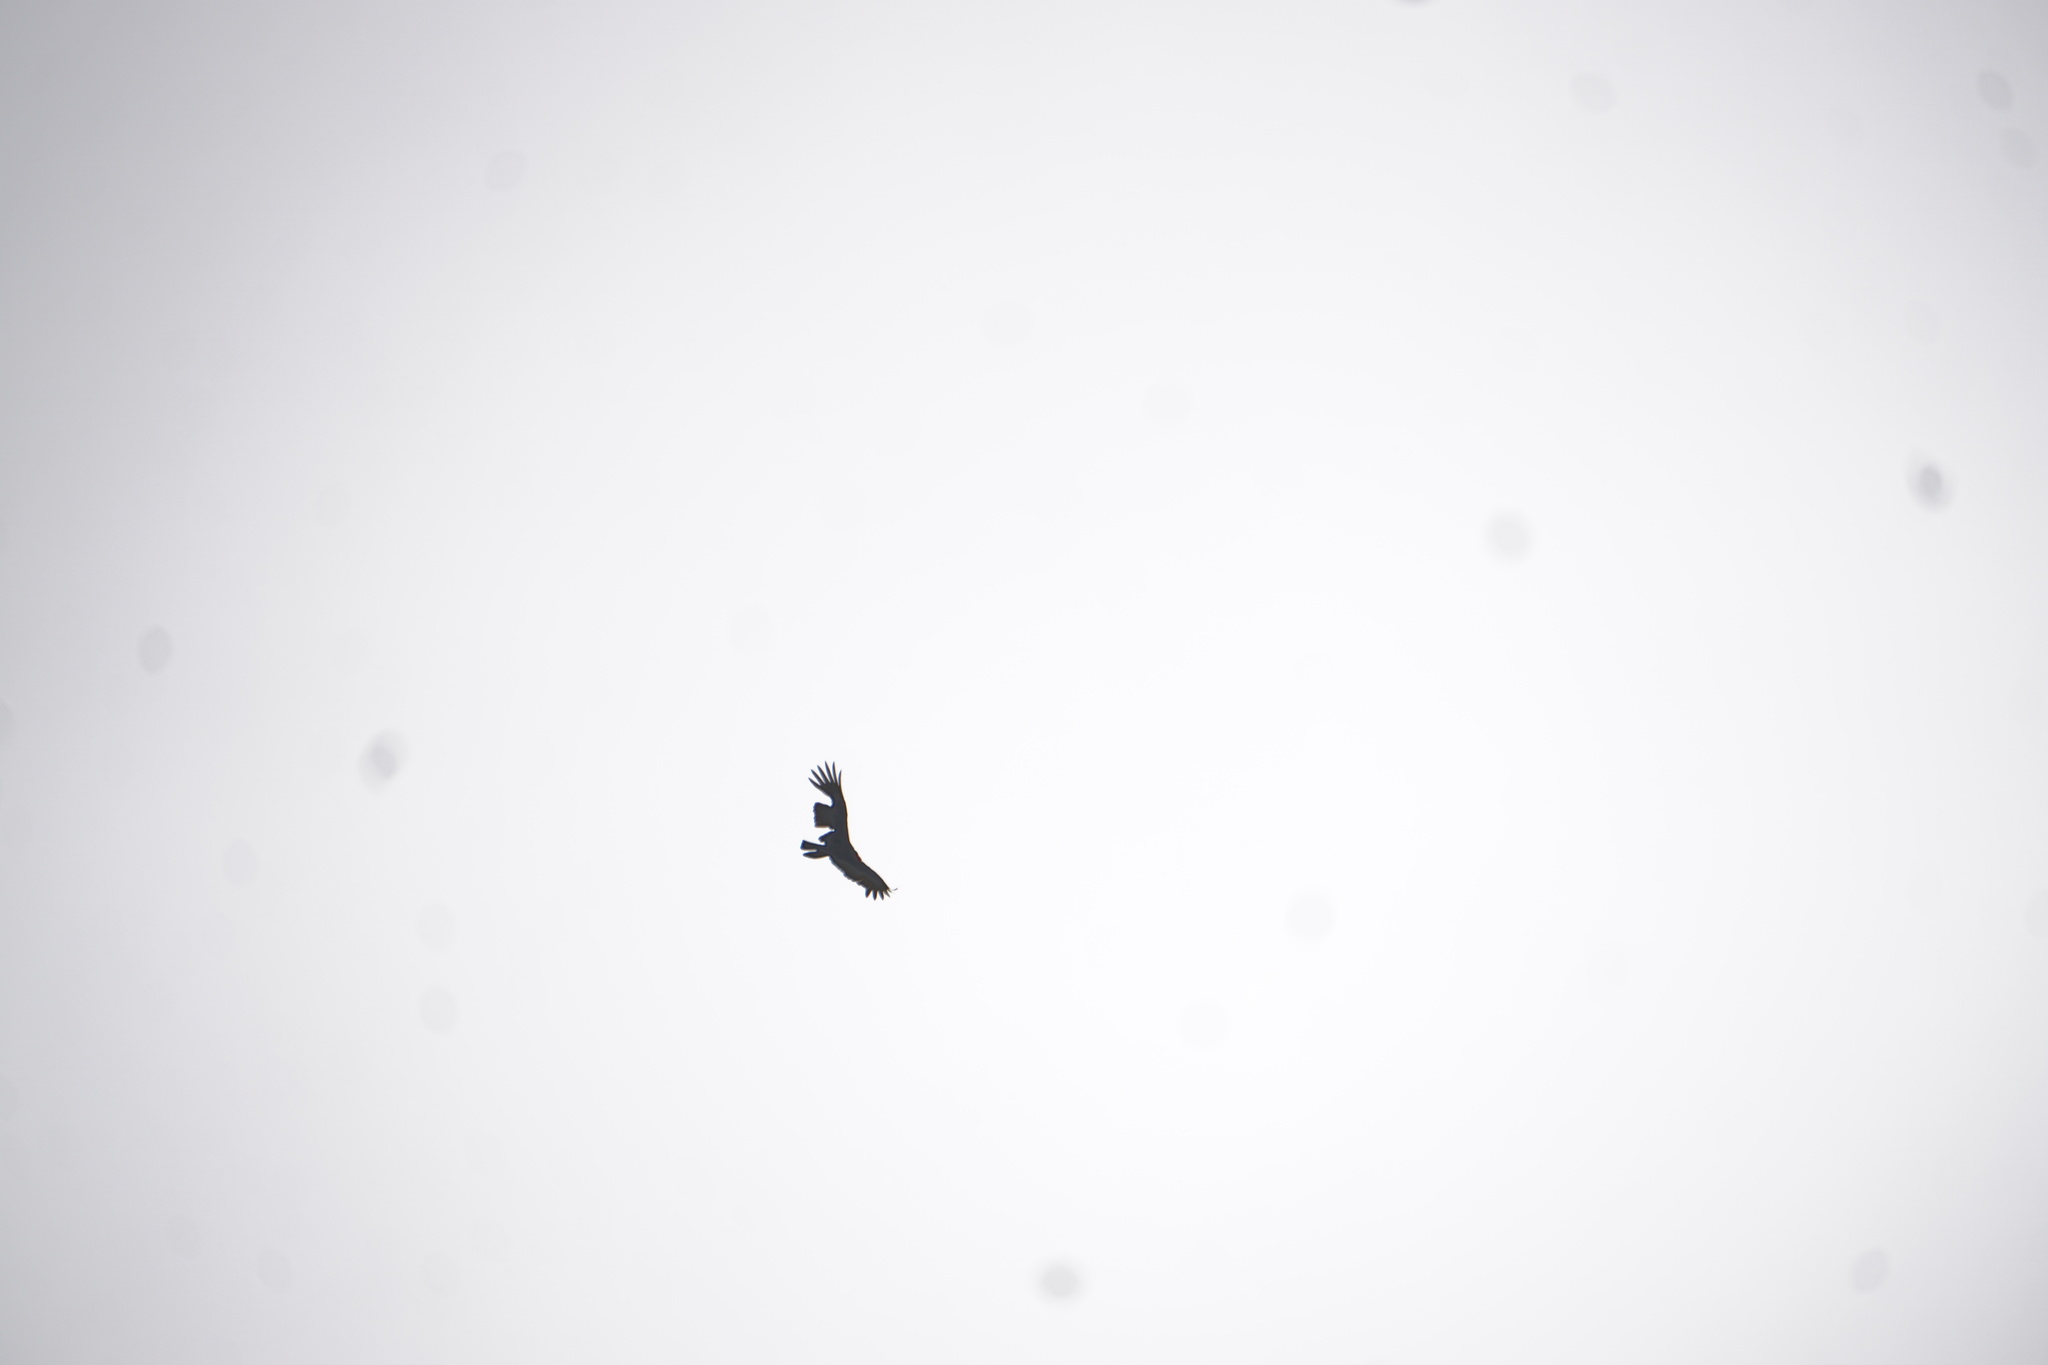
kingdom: Animalia
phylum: Chordata
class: Aves
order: Accipitriformes
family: Cathartidae
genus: Cathartes
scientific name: Cathartes aura
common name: Turkey vulture
